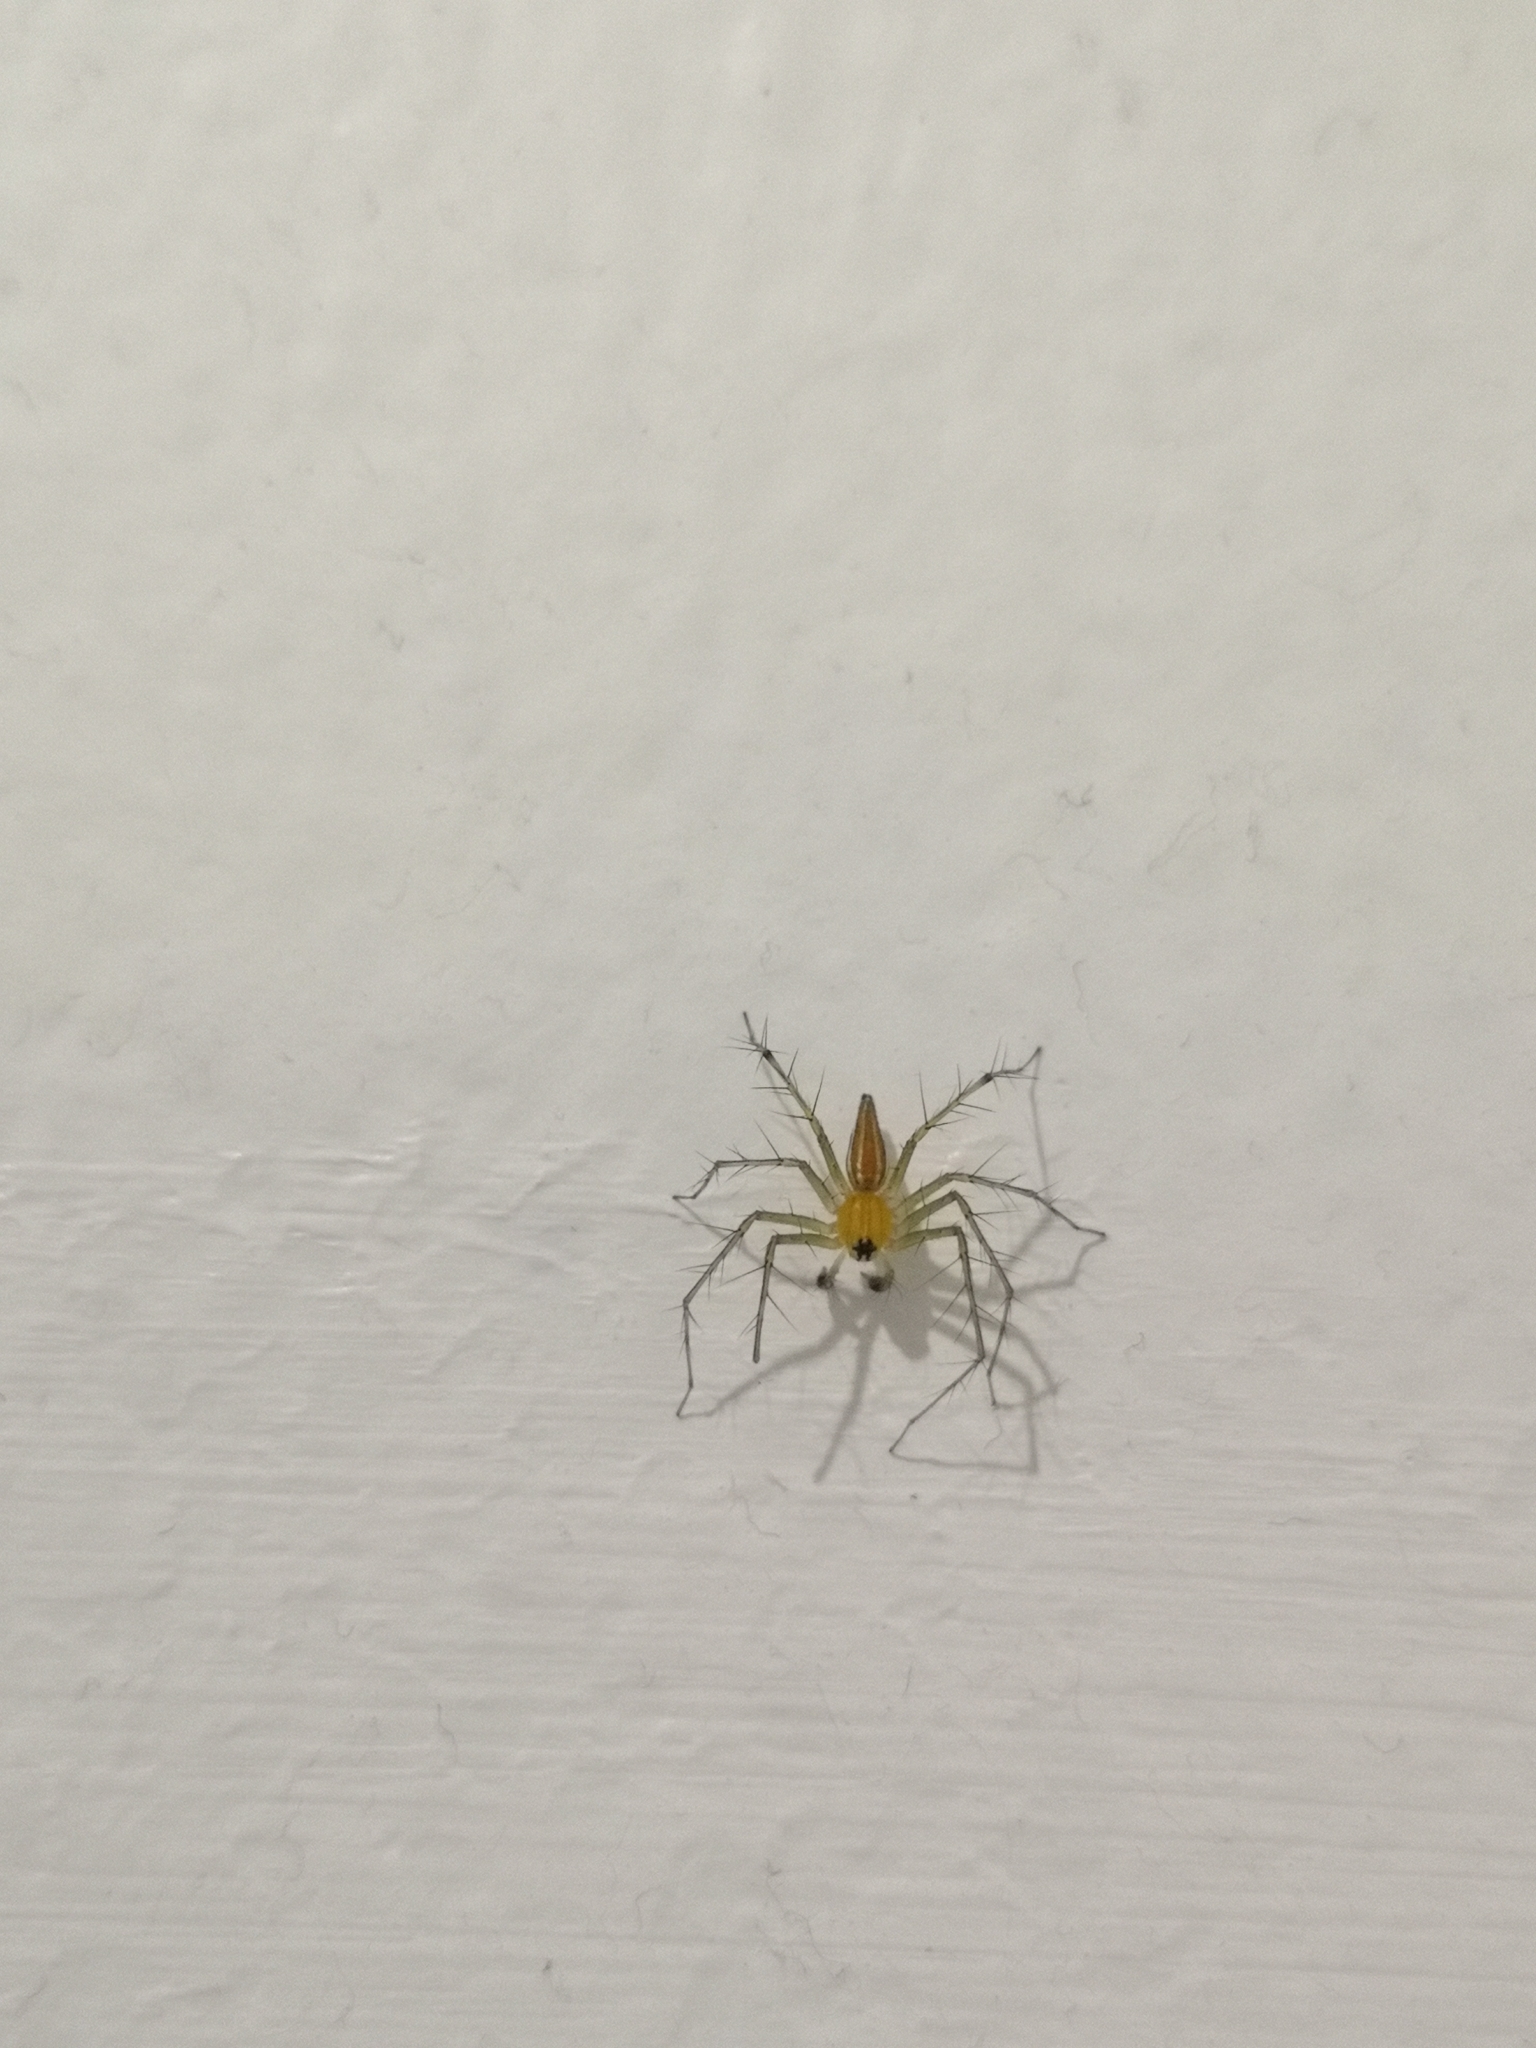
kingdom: Animalia
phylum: Arthropoda
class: Arachnida
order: Araneae
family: Oxyopidae
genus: Oxyopes
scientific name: Oxyopes macilentus
